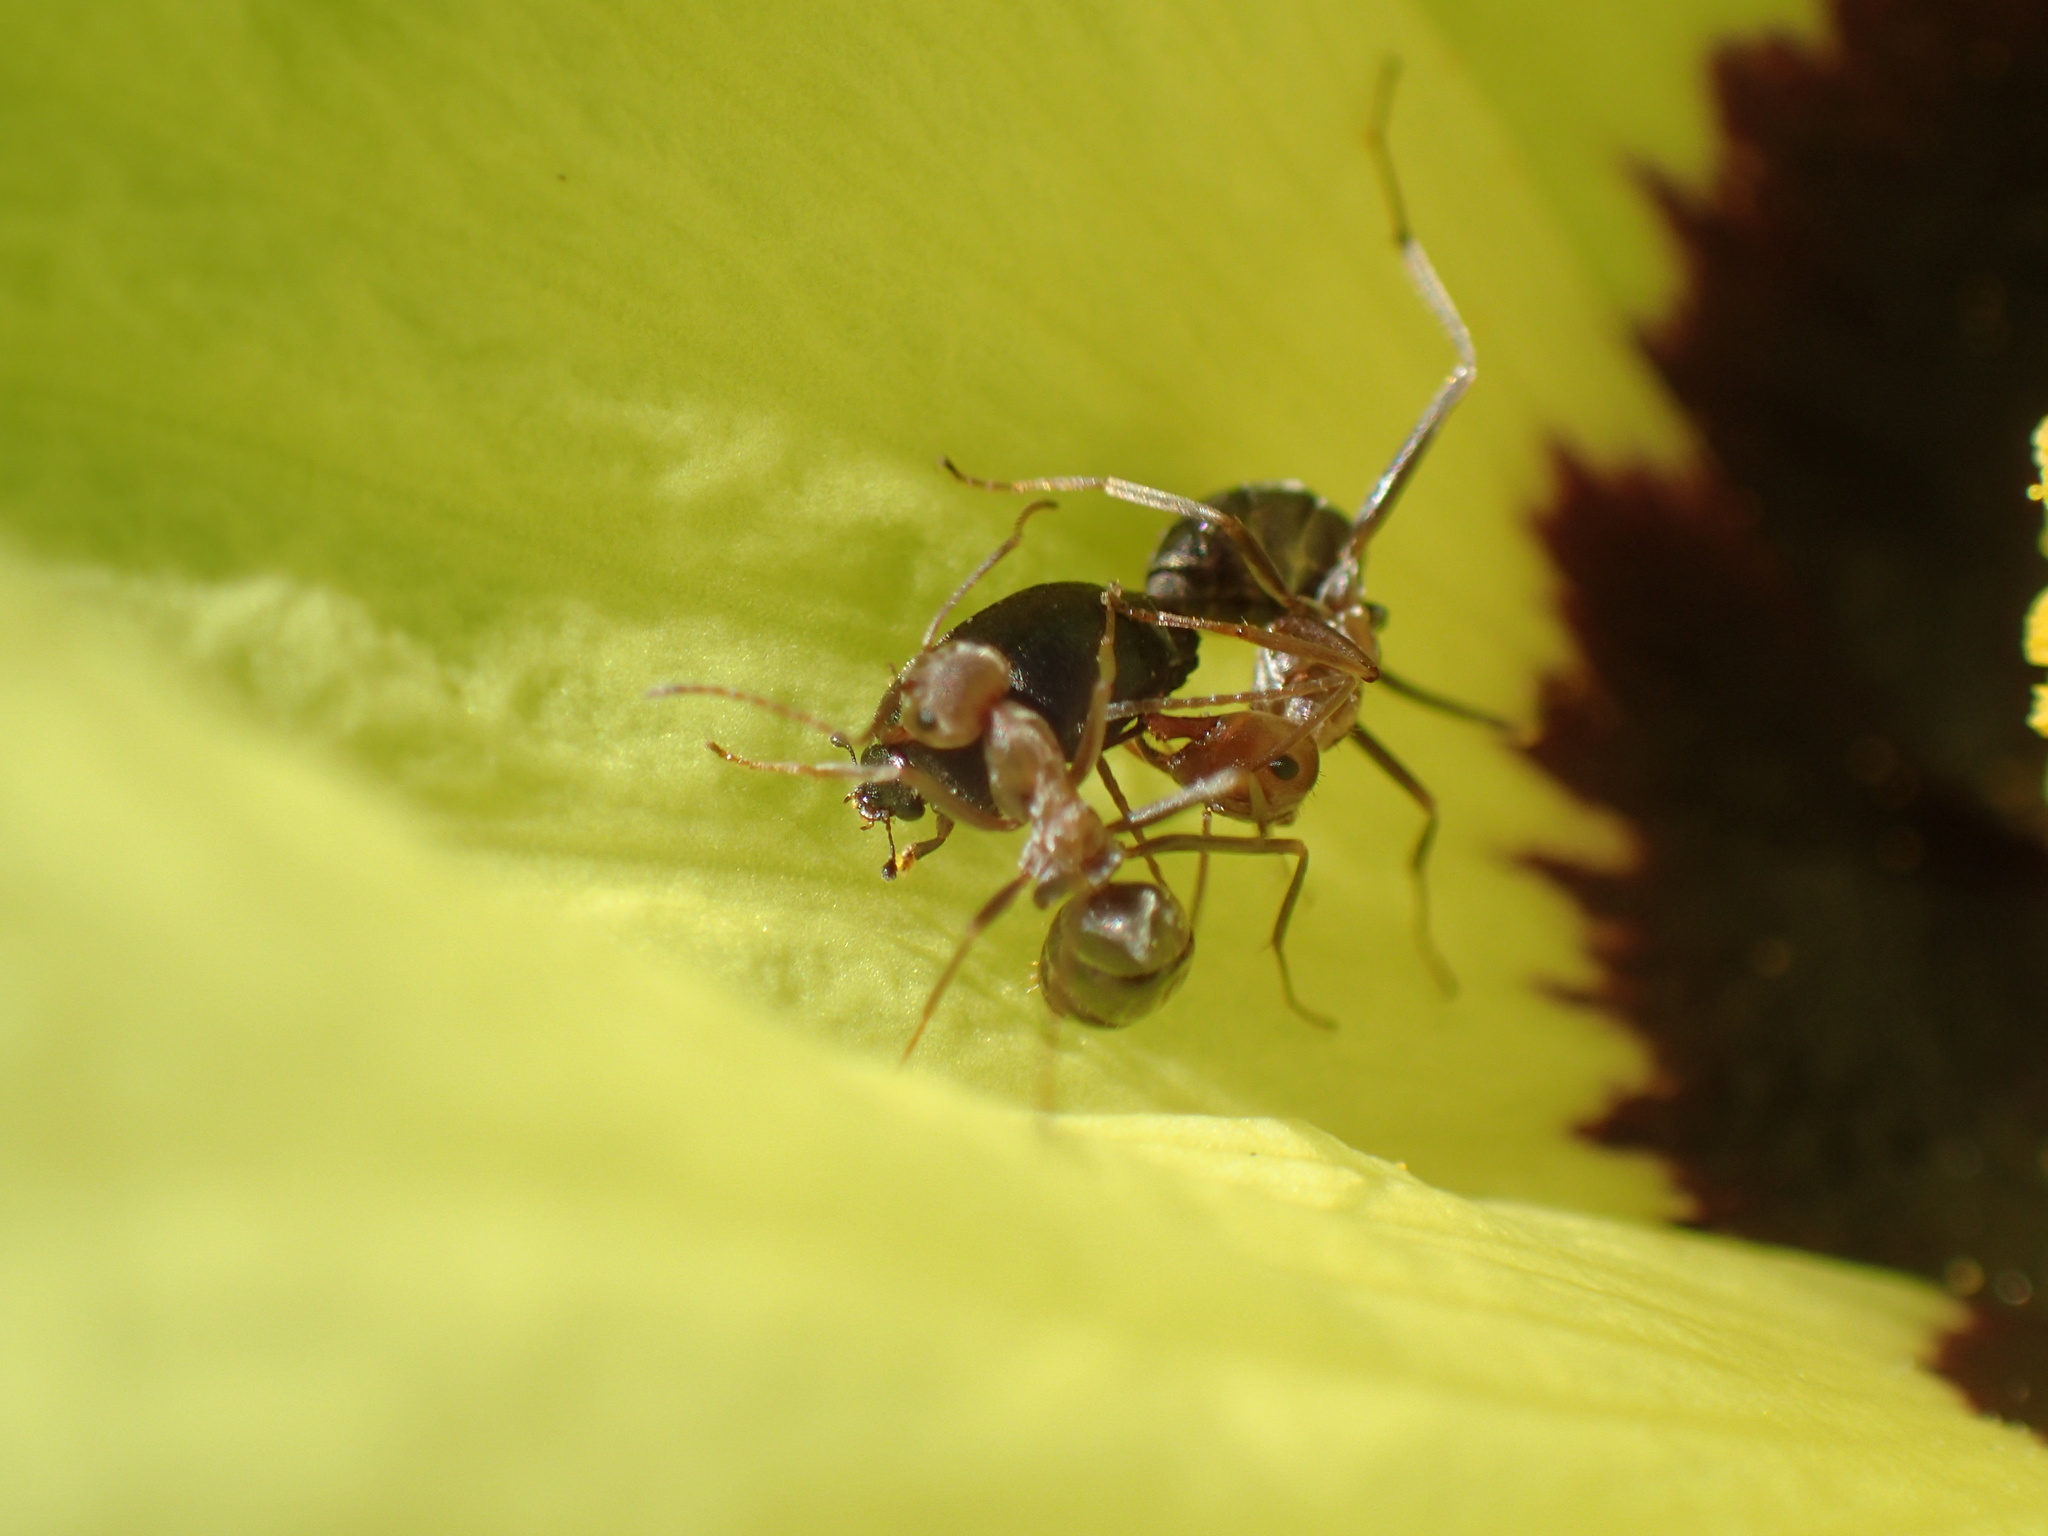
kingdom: Animalia
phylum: Arthropoda
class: Insecta
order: Hymenoptera
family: Formicidae
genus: Anoplolepis
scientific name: Anoplolepis custodiens
